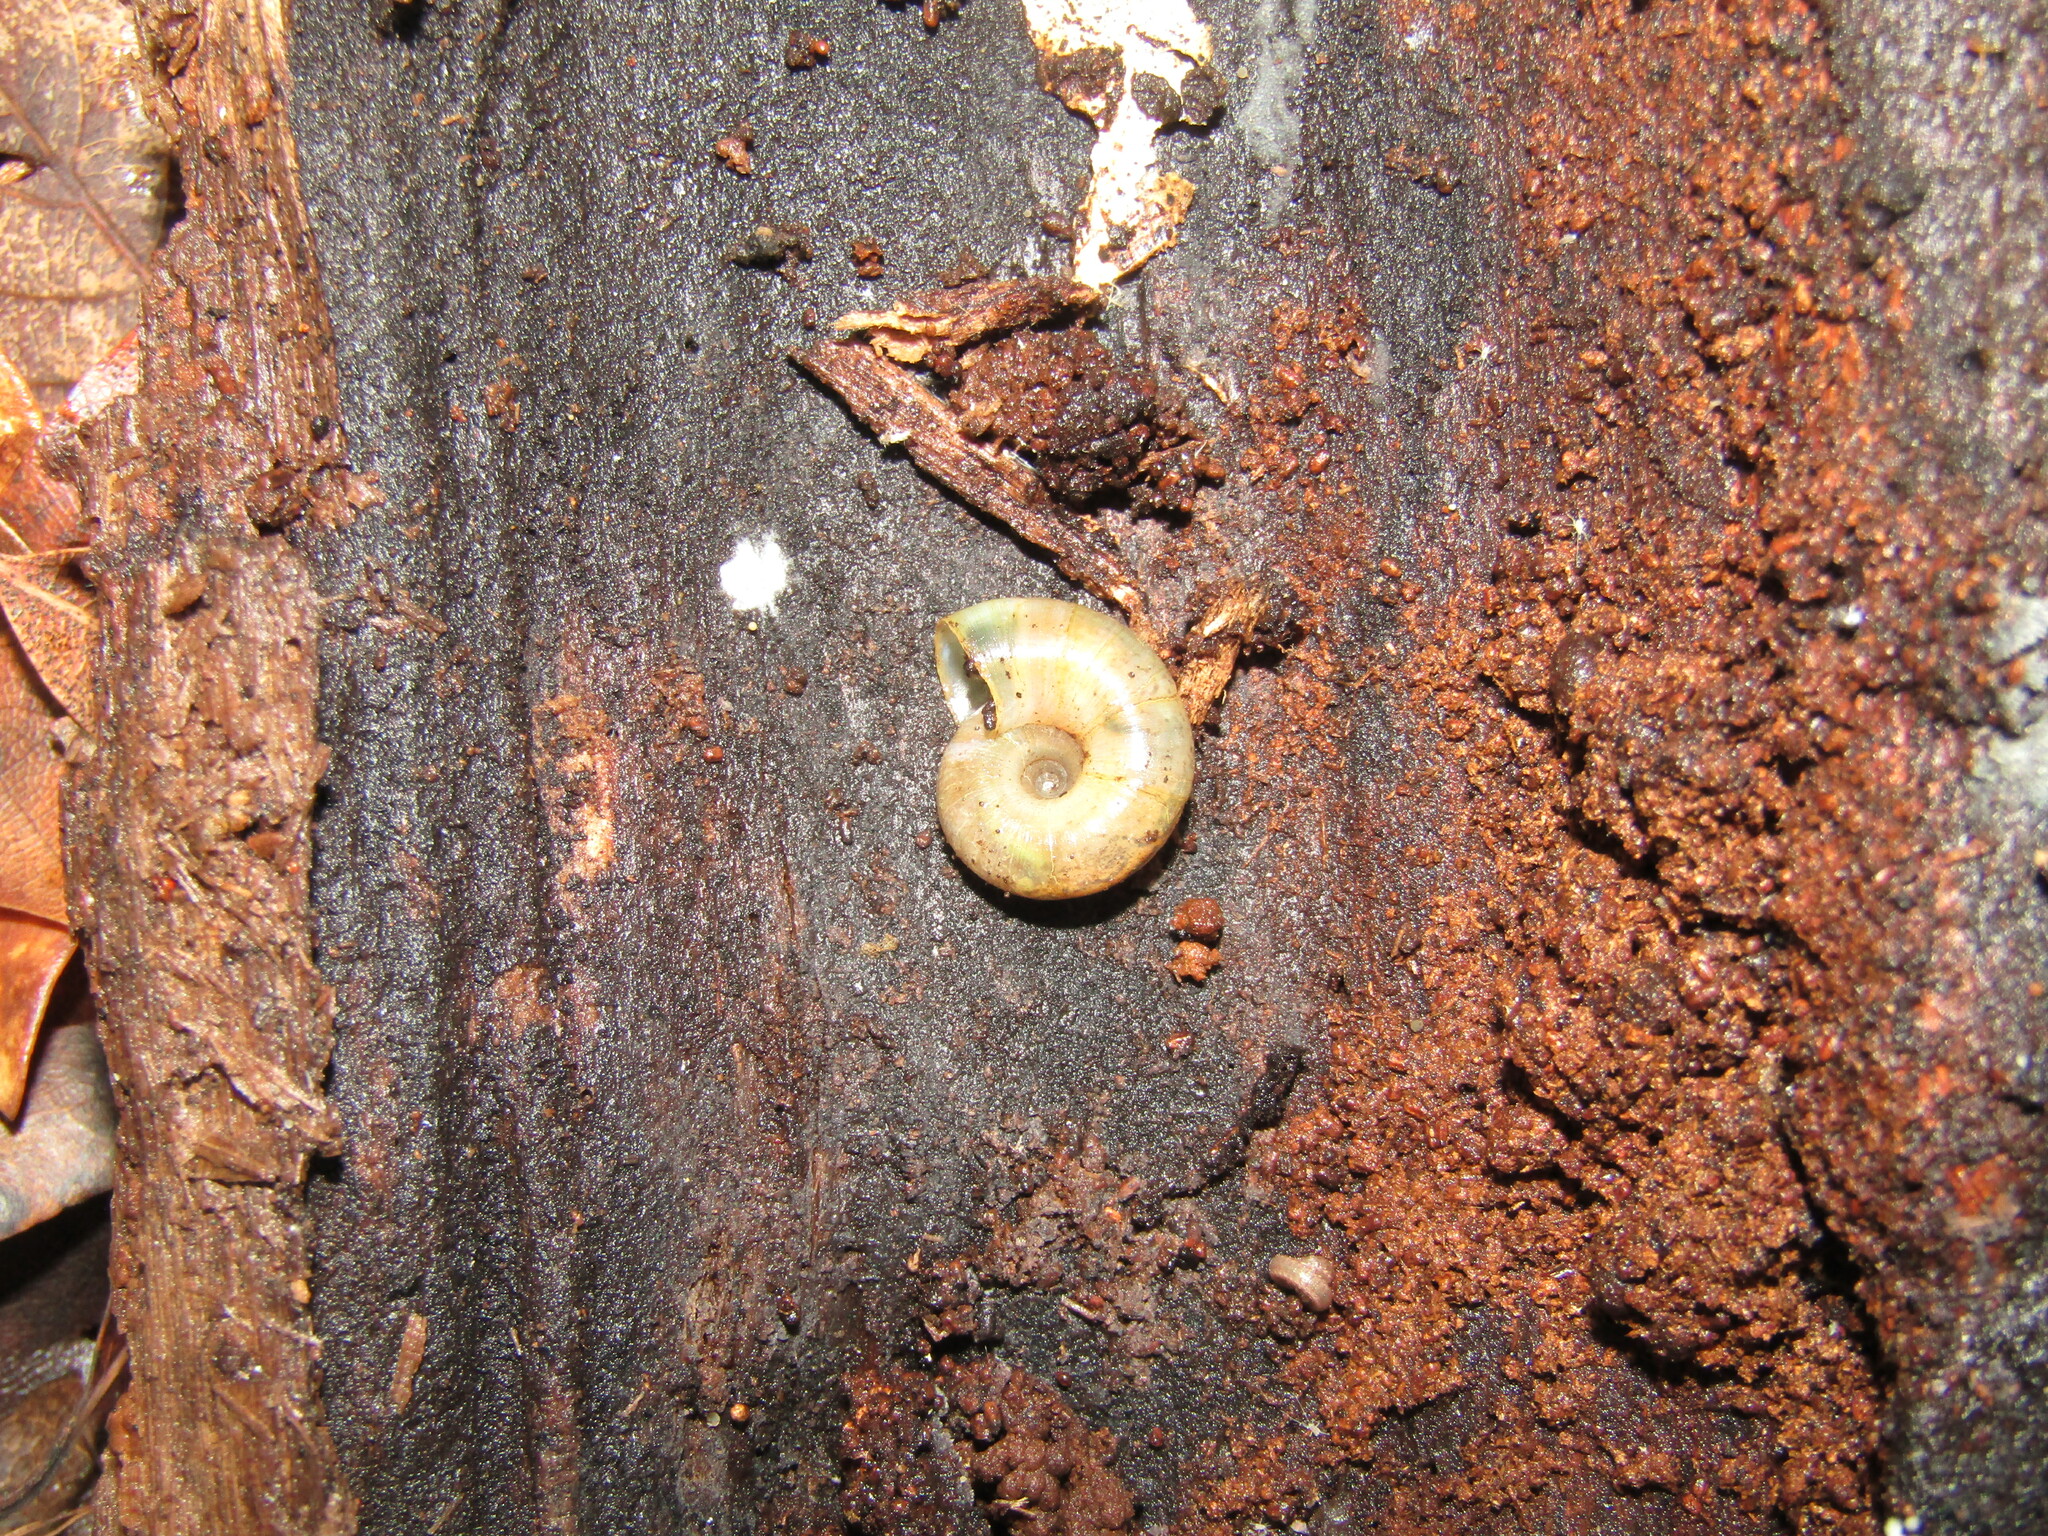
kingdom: Animalia
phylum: Mollusca
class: Gastropoda
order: Stylommatophora
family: Haplotrematidae
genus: Haplotrema
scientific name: Haplotrema minimum
